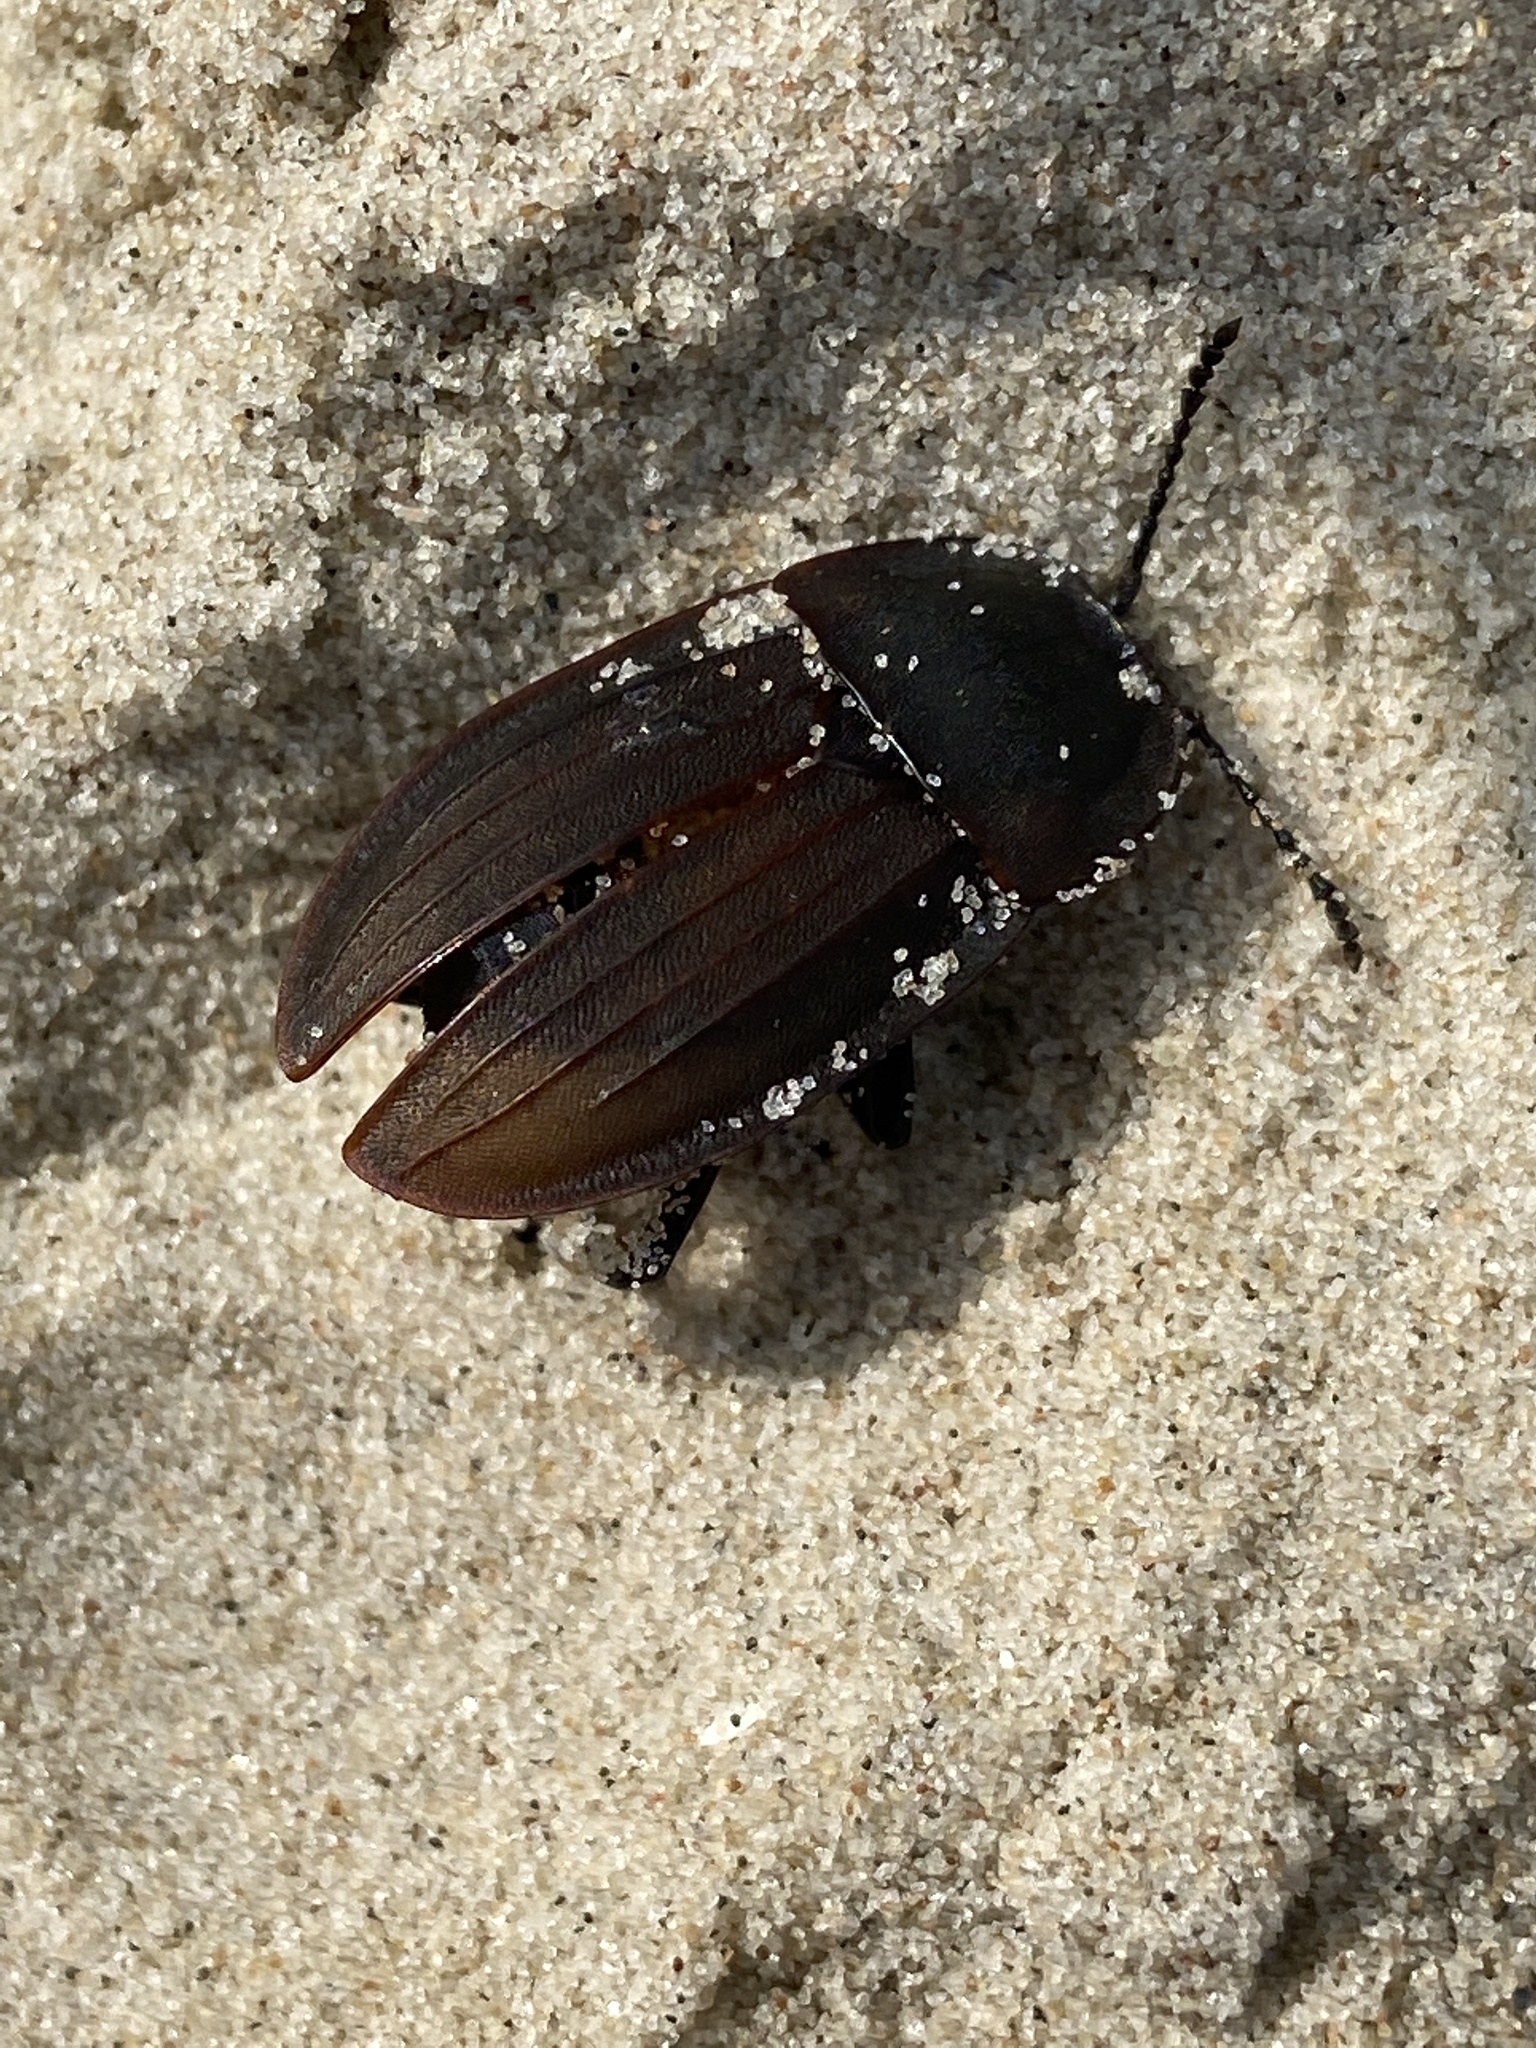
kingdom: Animalia
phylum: Arthropoda
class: Insecta
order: Coleoptera
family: Staphylinidae
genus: Silpha
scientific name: Silpha carinata
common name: Silphid beetle
